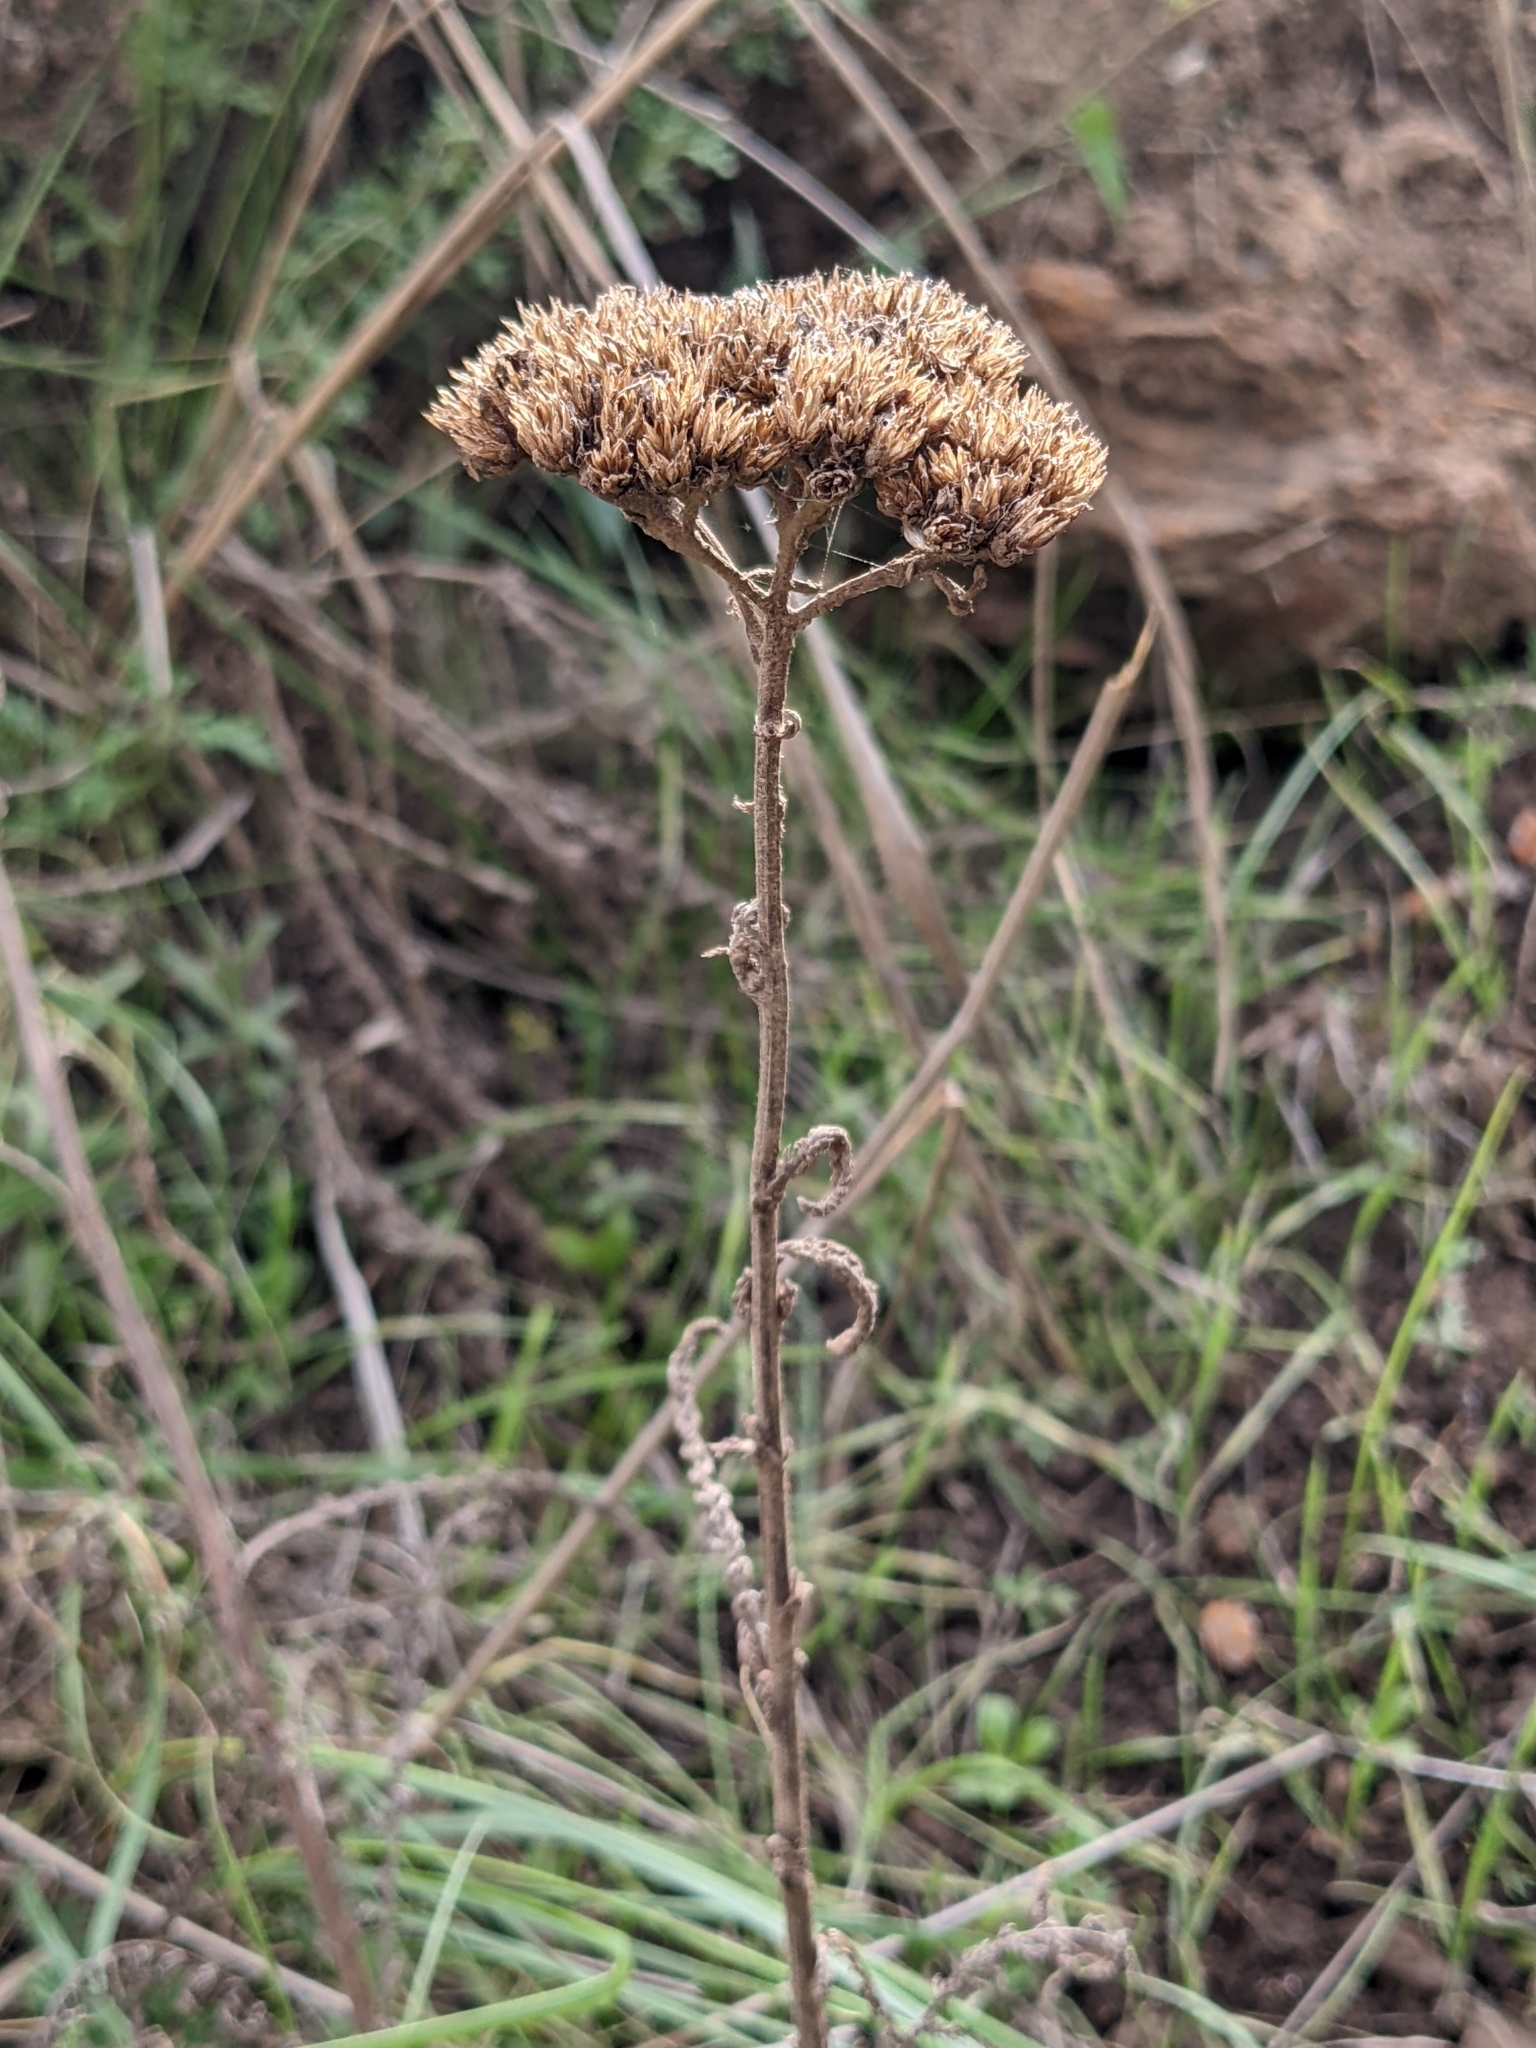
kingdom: Plantae
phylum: Tracheophyta
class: Magnoliopsida
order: Asterales
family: Asteraceae
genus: Achillea
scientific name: Achillea millefolium
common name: Yarrow
